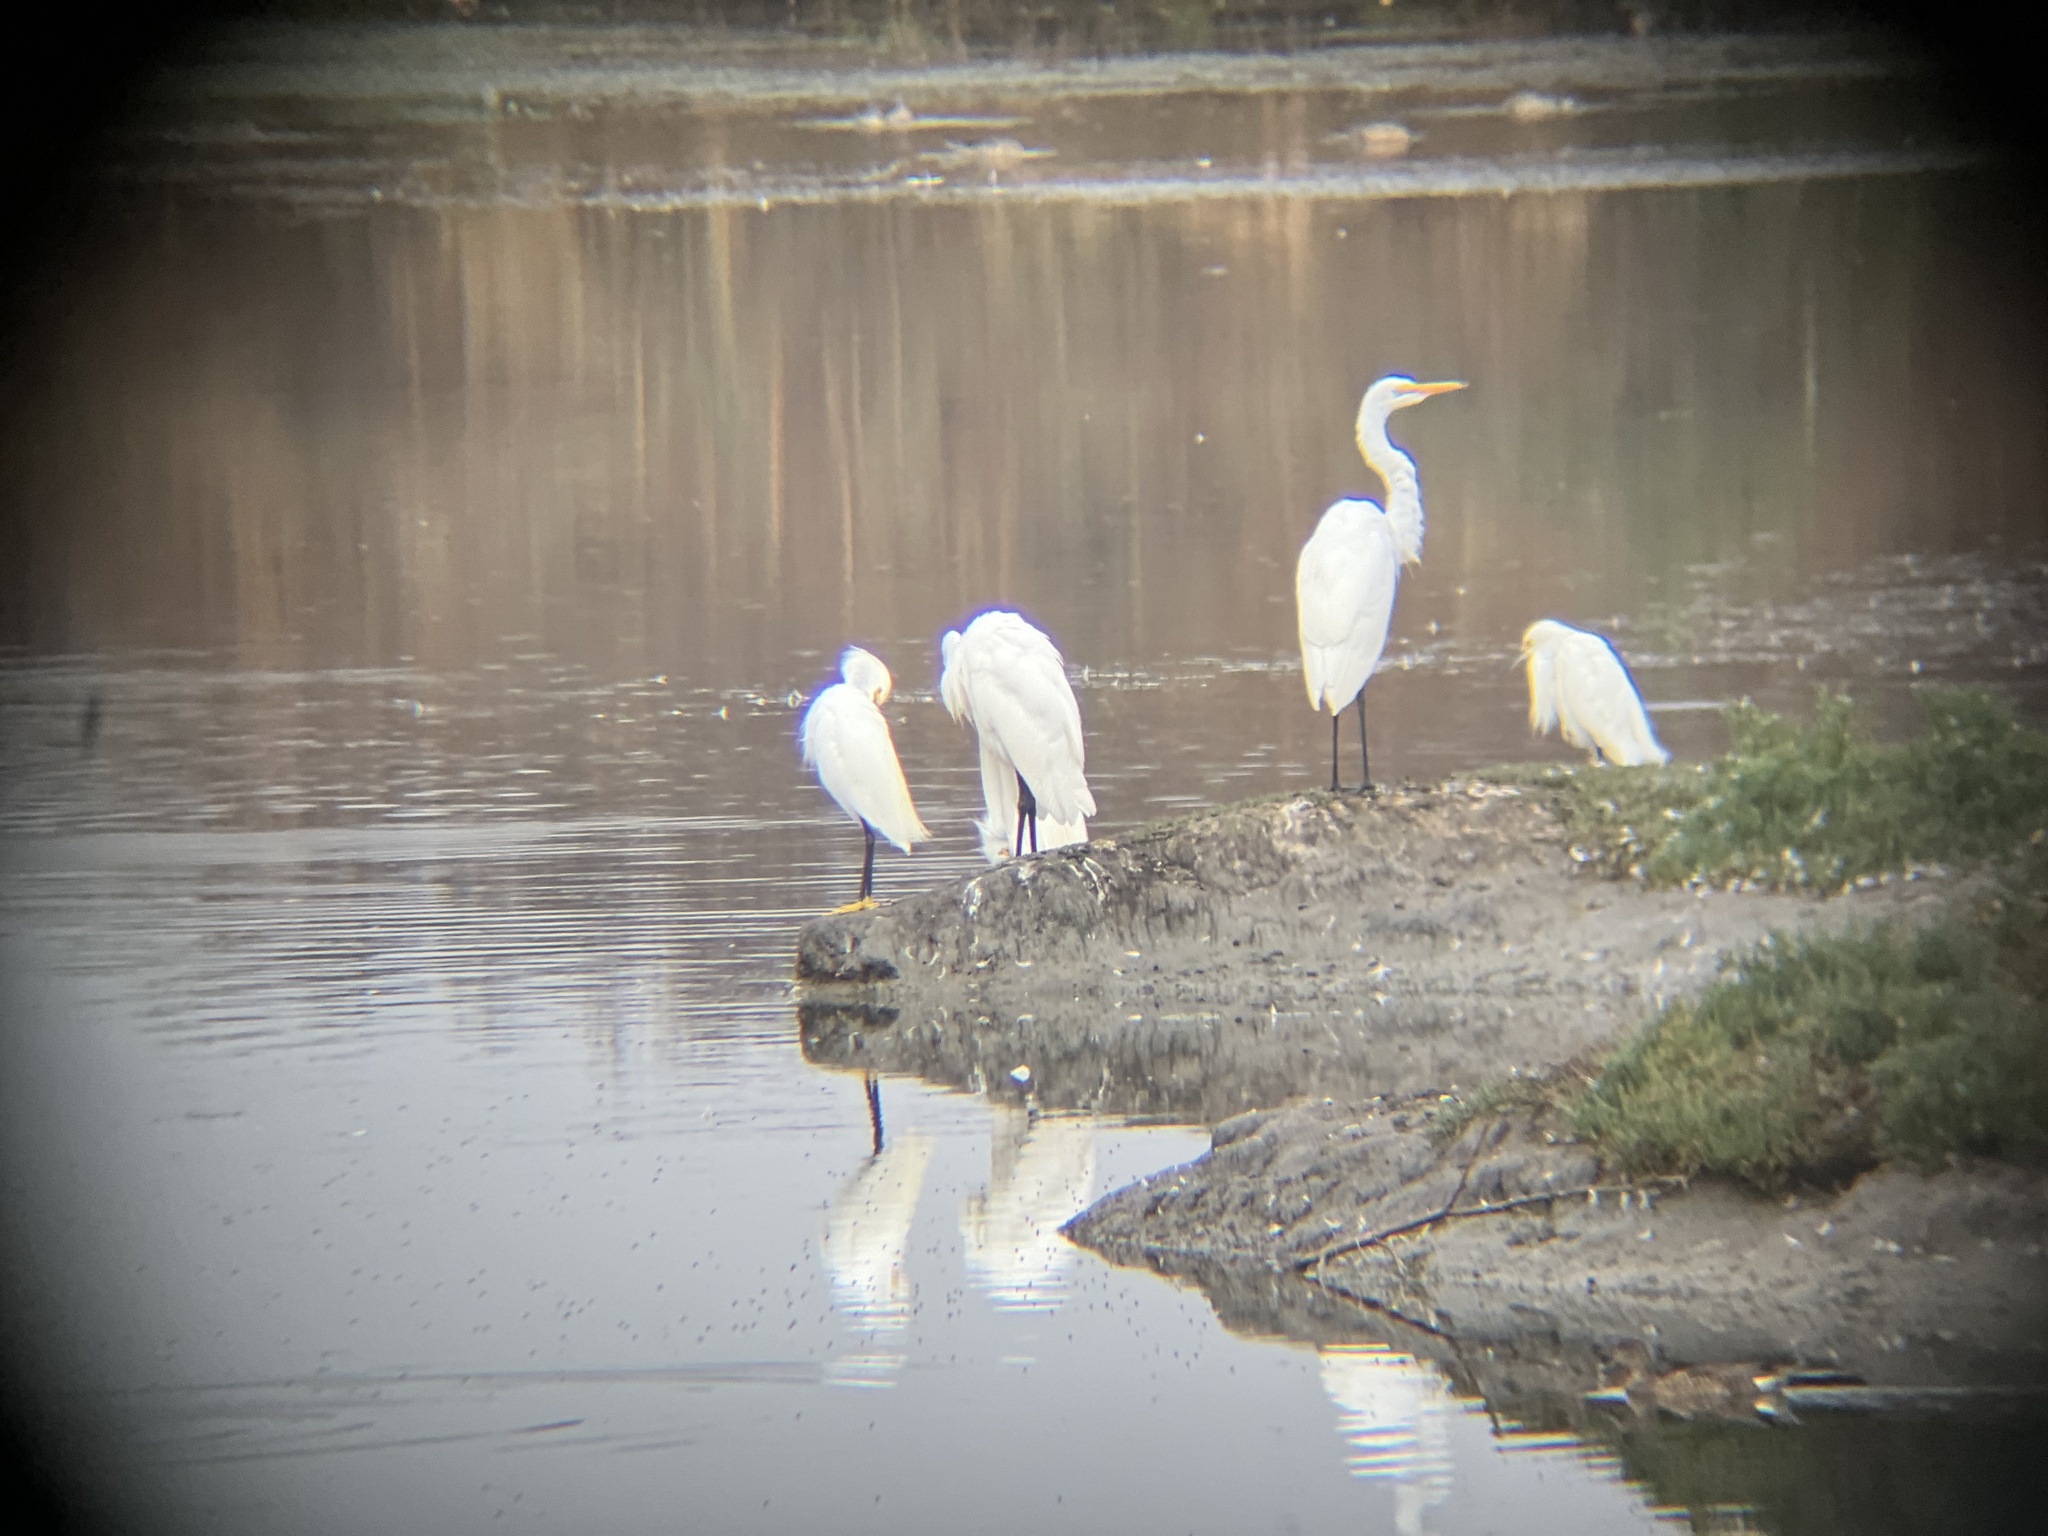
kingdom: Animalia
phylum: Chordata
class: Aves
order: Pelecaniformes
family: Ardeidae
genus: Ardea
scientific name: Ardea alba
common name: Great egret
